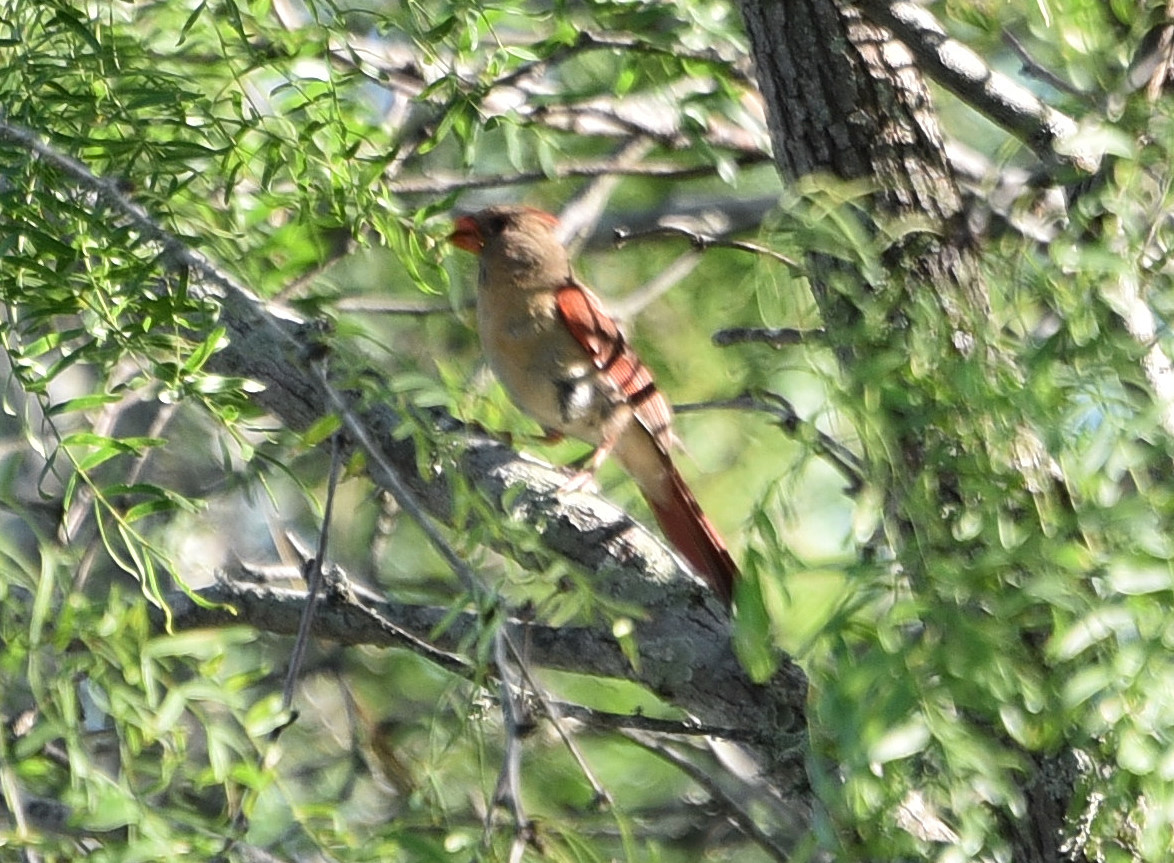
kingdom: Animalia
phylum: Chordata
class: Aves
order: Passeriformes
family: Cardinalidae
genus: Cardinalis
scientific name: Cardinalis cardinalis
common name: Northern cardinal
